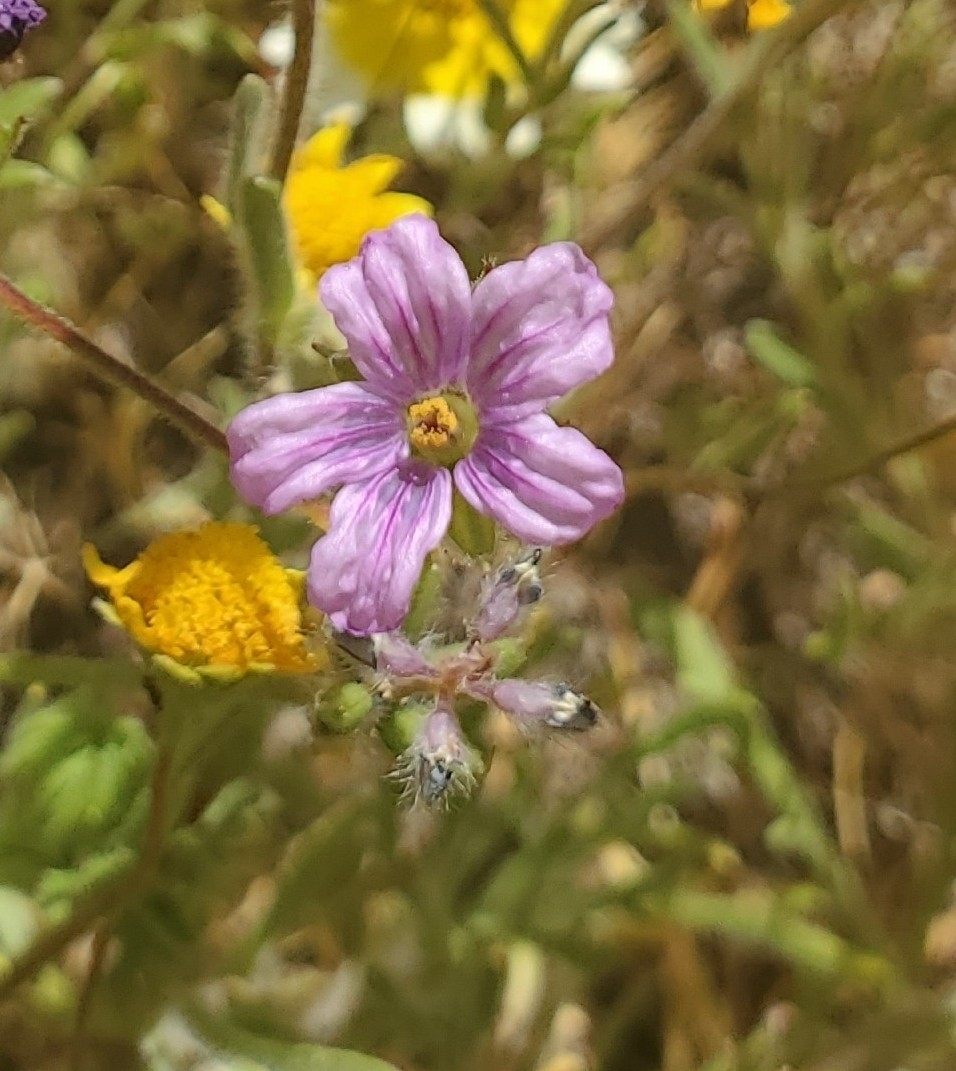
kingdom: Plantae
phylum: Tracheophyta
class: Magnoliopsida
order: Geraniales
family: Geraniaceae
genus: Erodium
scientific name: Erodium botrys
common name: Mediterranean stork's-bill
